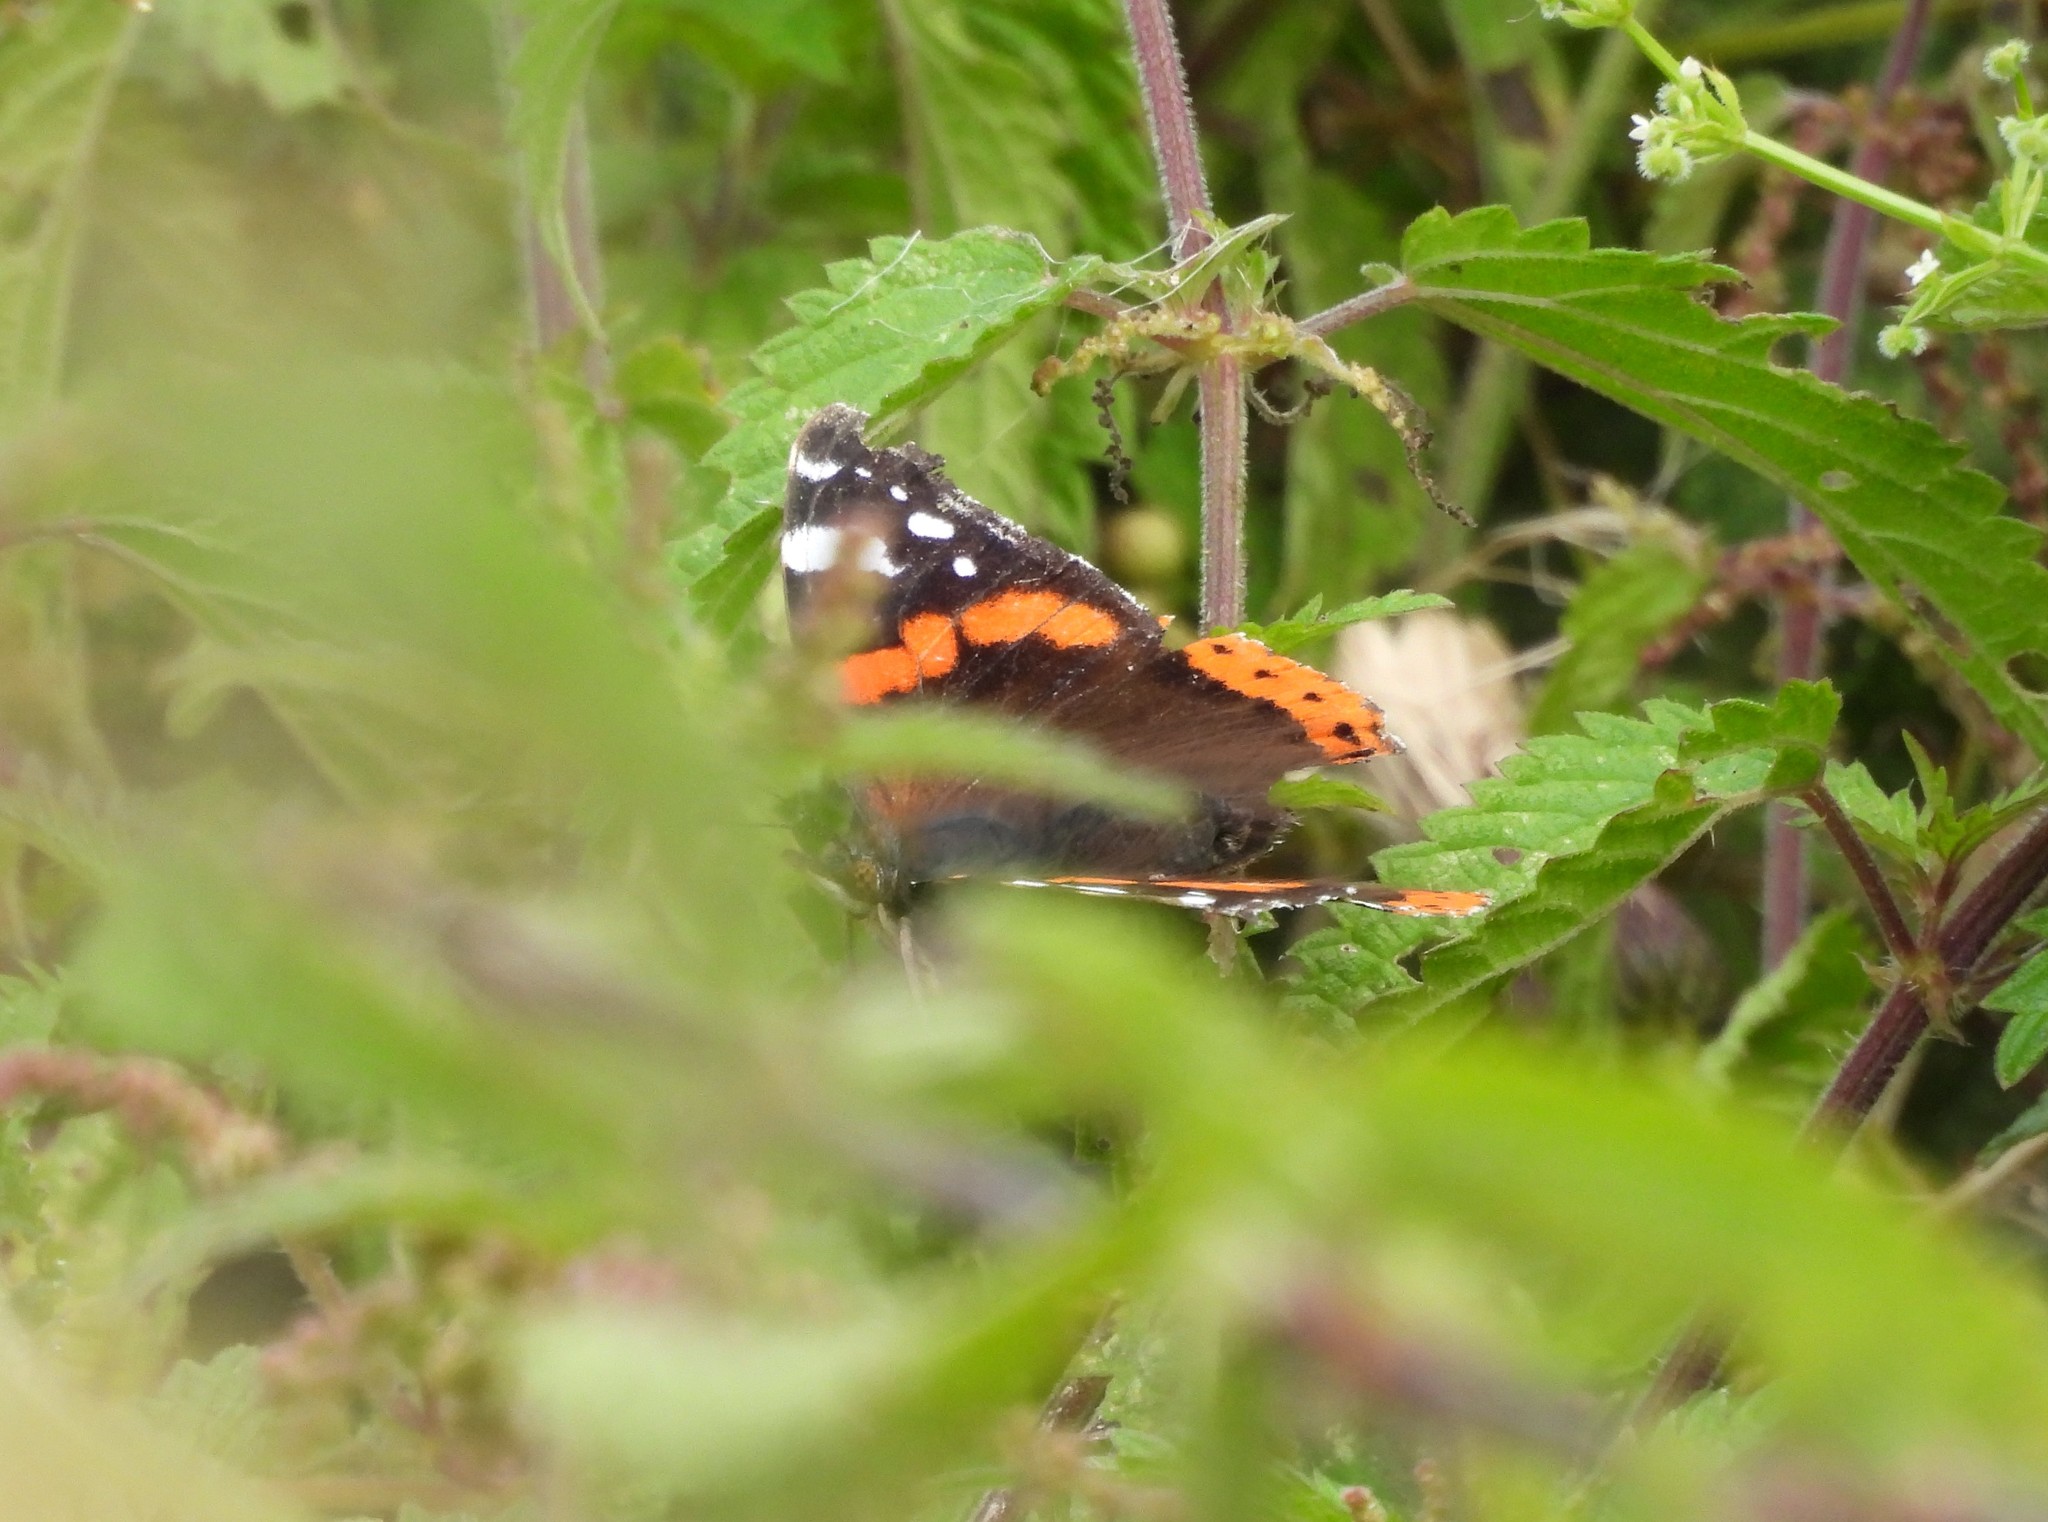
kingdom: Animalia
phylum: Arthropoda
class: Insecta
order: Lepidoptera
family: Nymphalidae
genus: Vanessa
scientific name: Vanessa atalanta
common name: Red admiral
